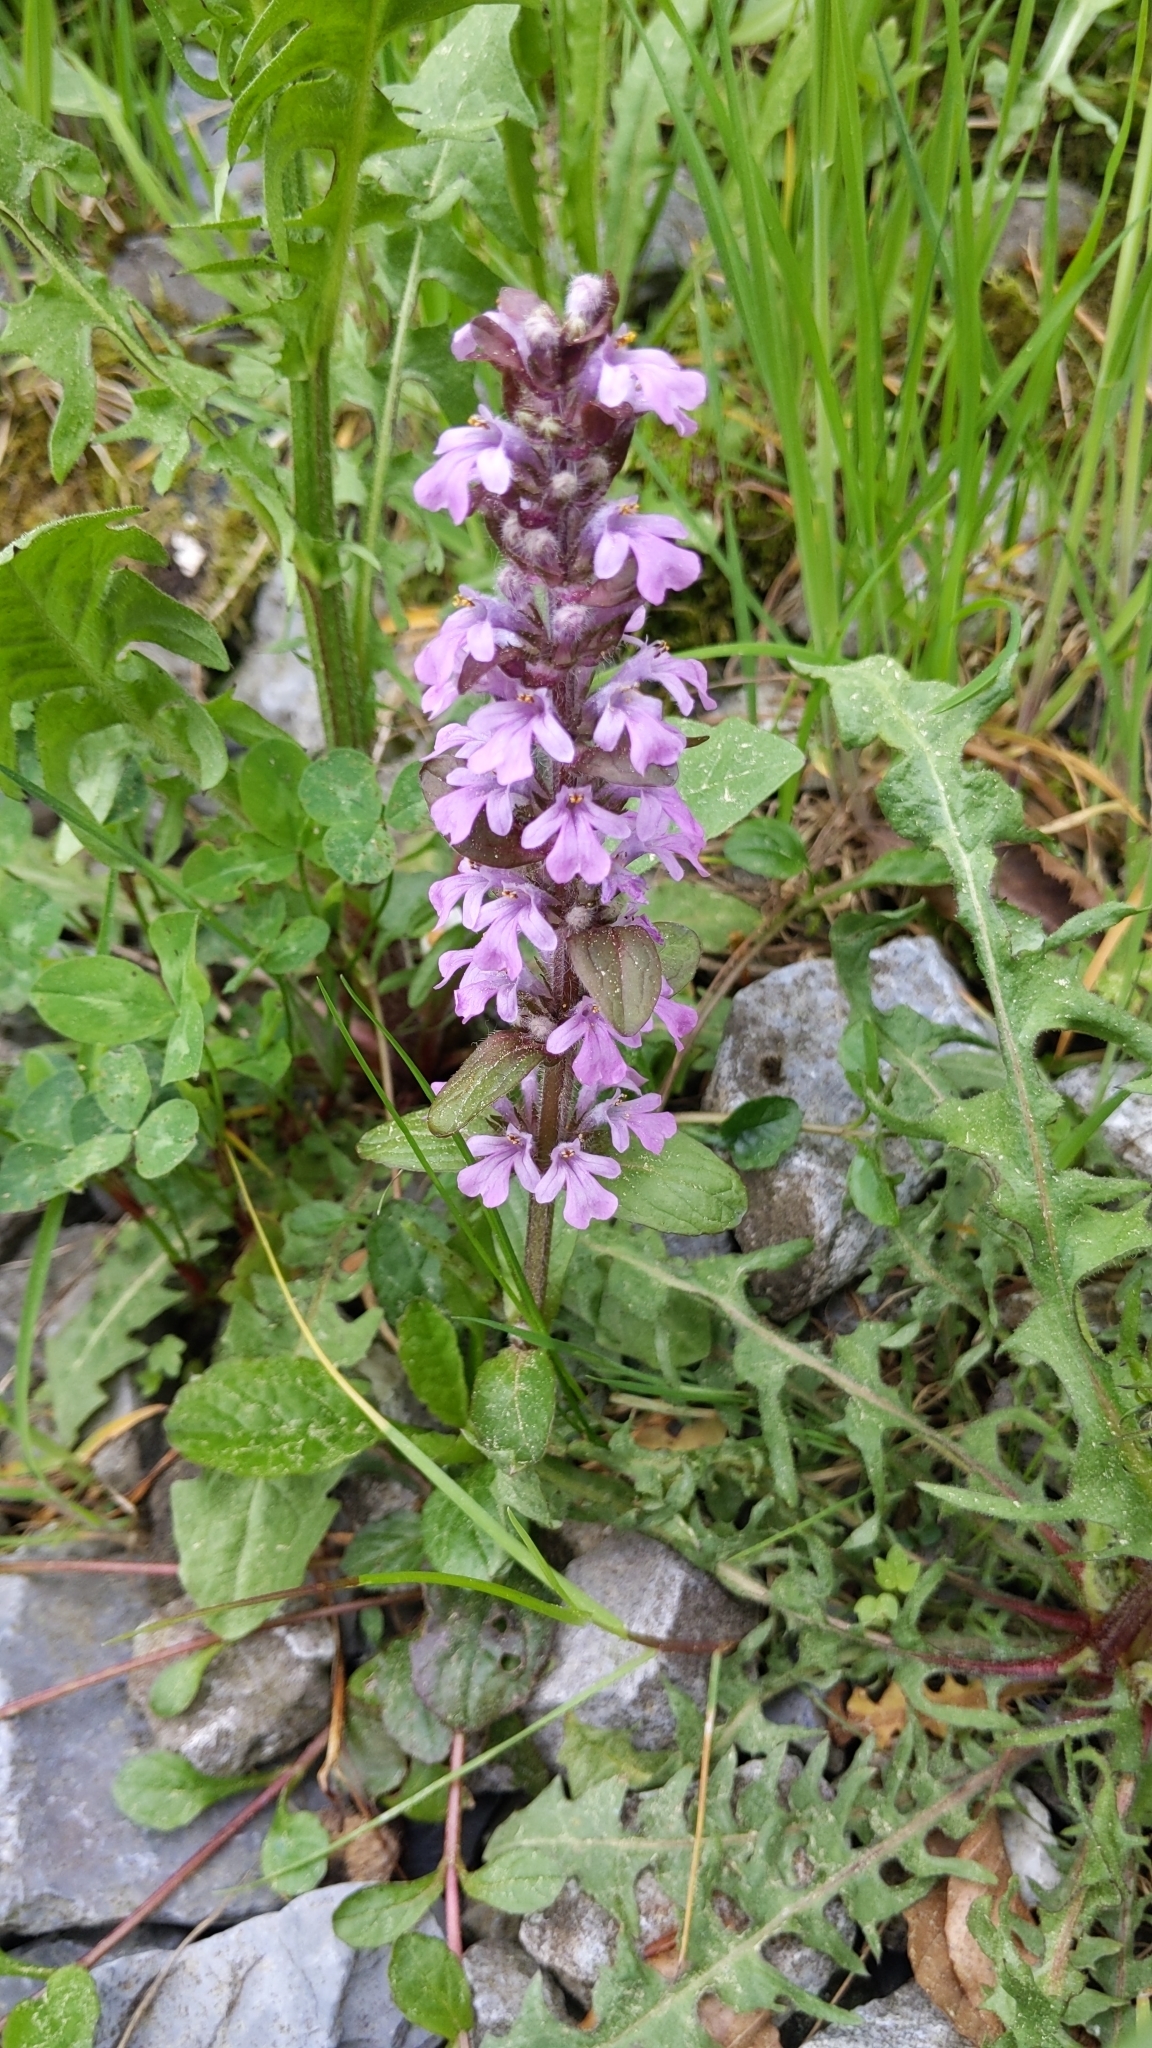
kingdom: Plantae
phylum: Tracheophyta
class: Magnoliopsida
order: Lamiales
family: Lamiaceae
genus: Ajuga
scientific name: Ajuga reptans
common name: Bugle
